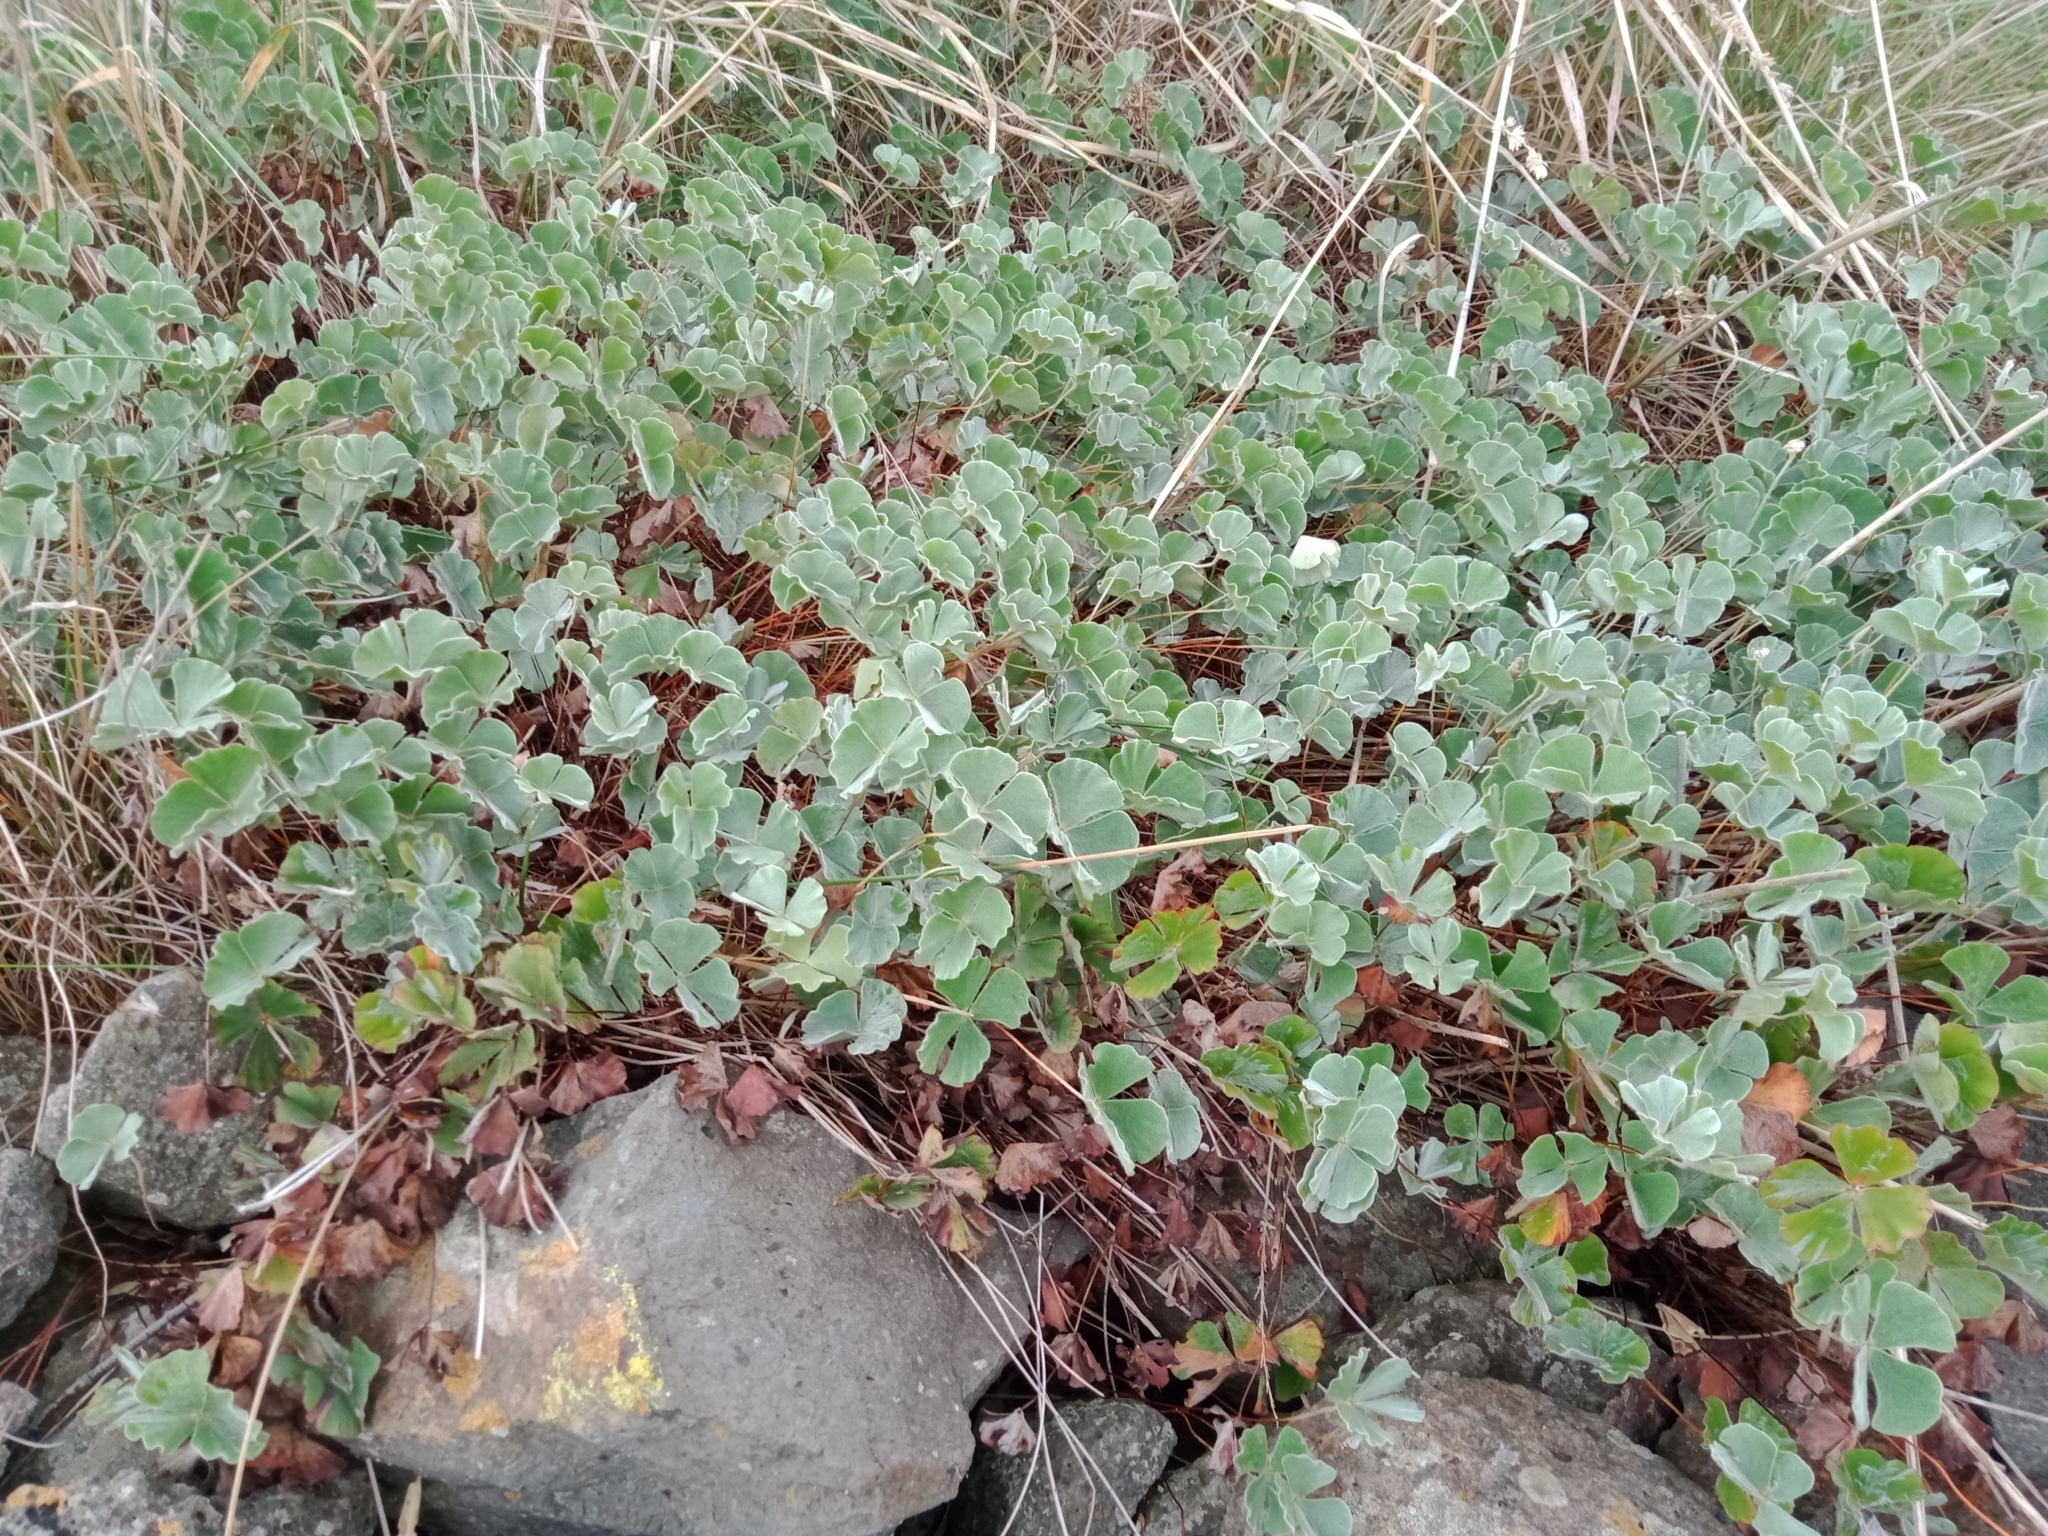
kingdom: Plantae
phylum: Tracheophyta
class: Polypodiopsida
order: Salviniales
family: Marsileaceae
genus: Marsilea
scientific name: Marsilea drummondii
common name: Nardoo
